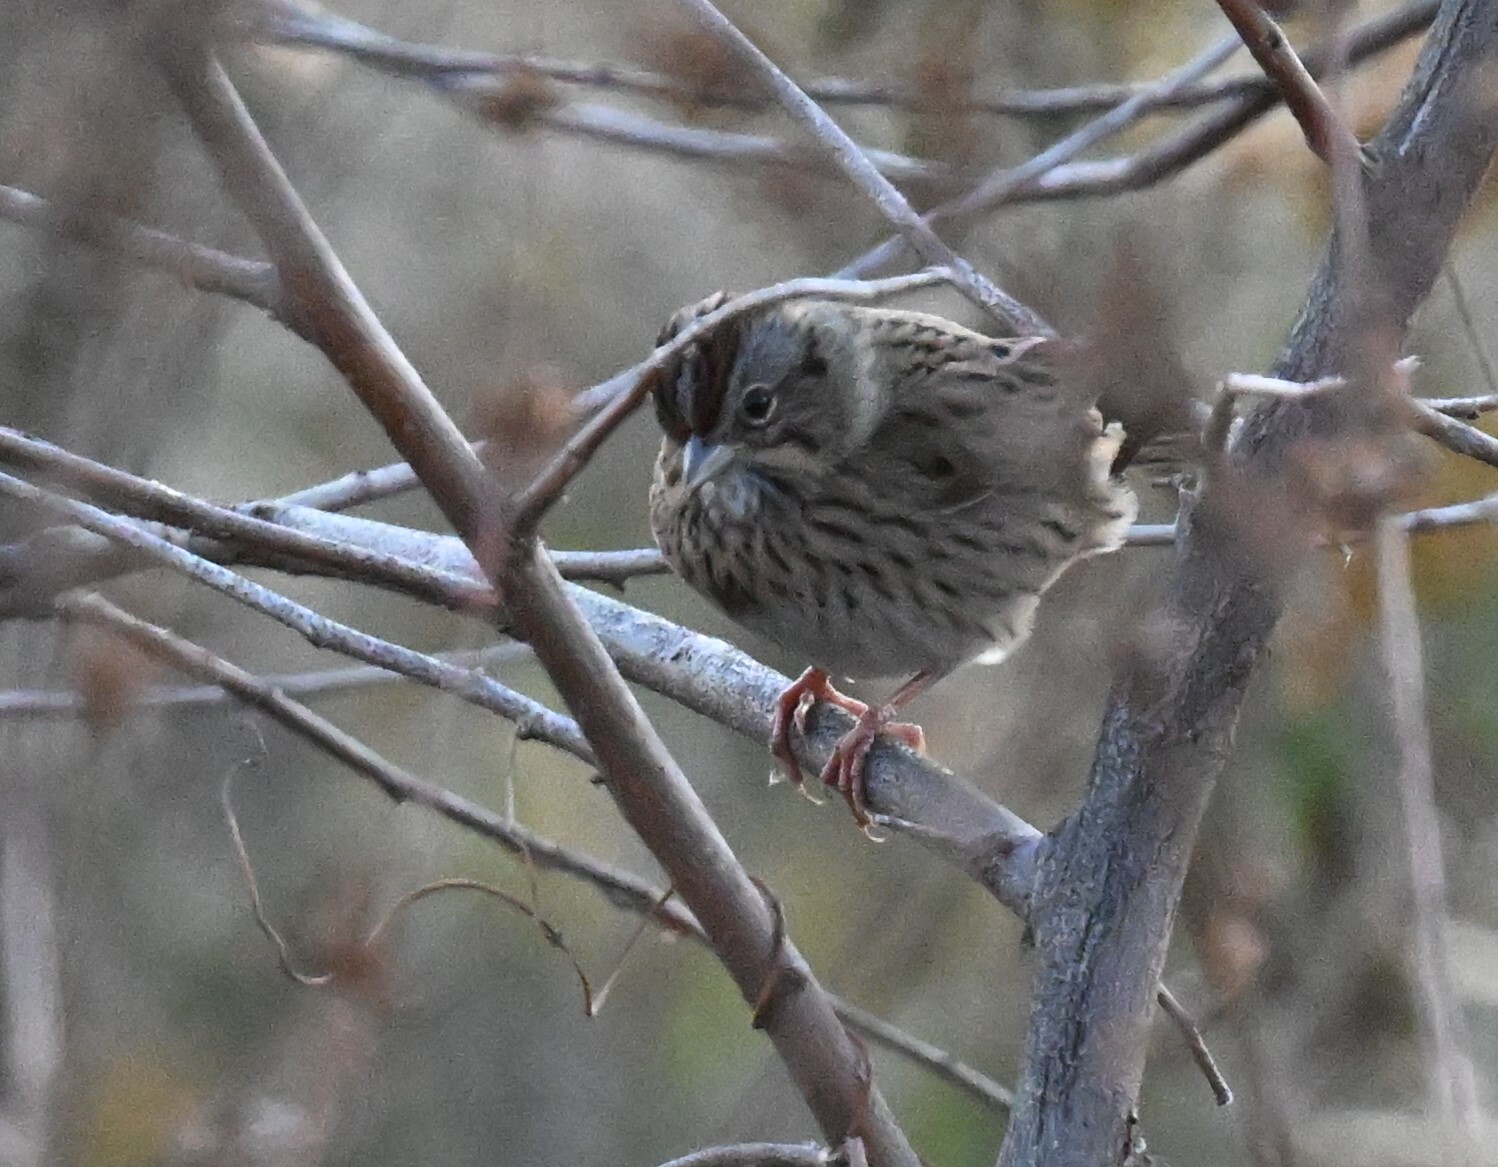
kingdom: Animalia
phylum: Chordata
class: Aves
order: Passeriformes
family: Passerellidae
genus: Melospiza
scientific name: Melospiza lincolnii
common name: Lincoln's sparrow
